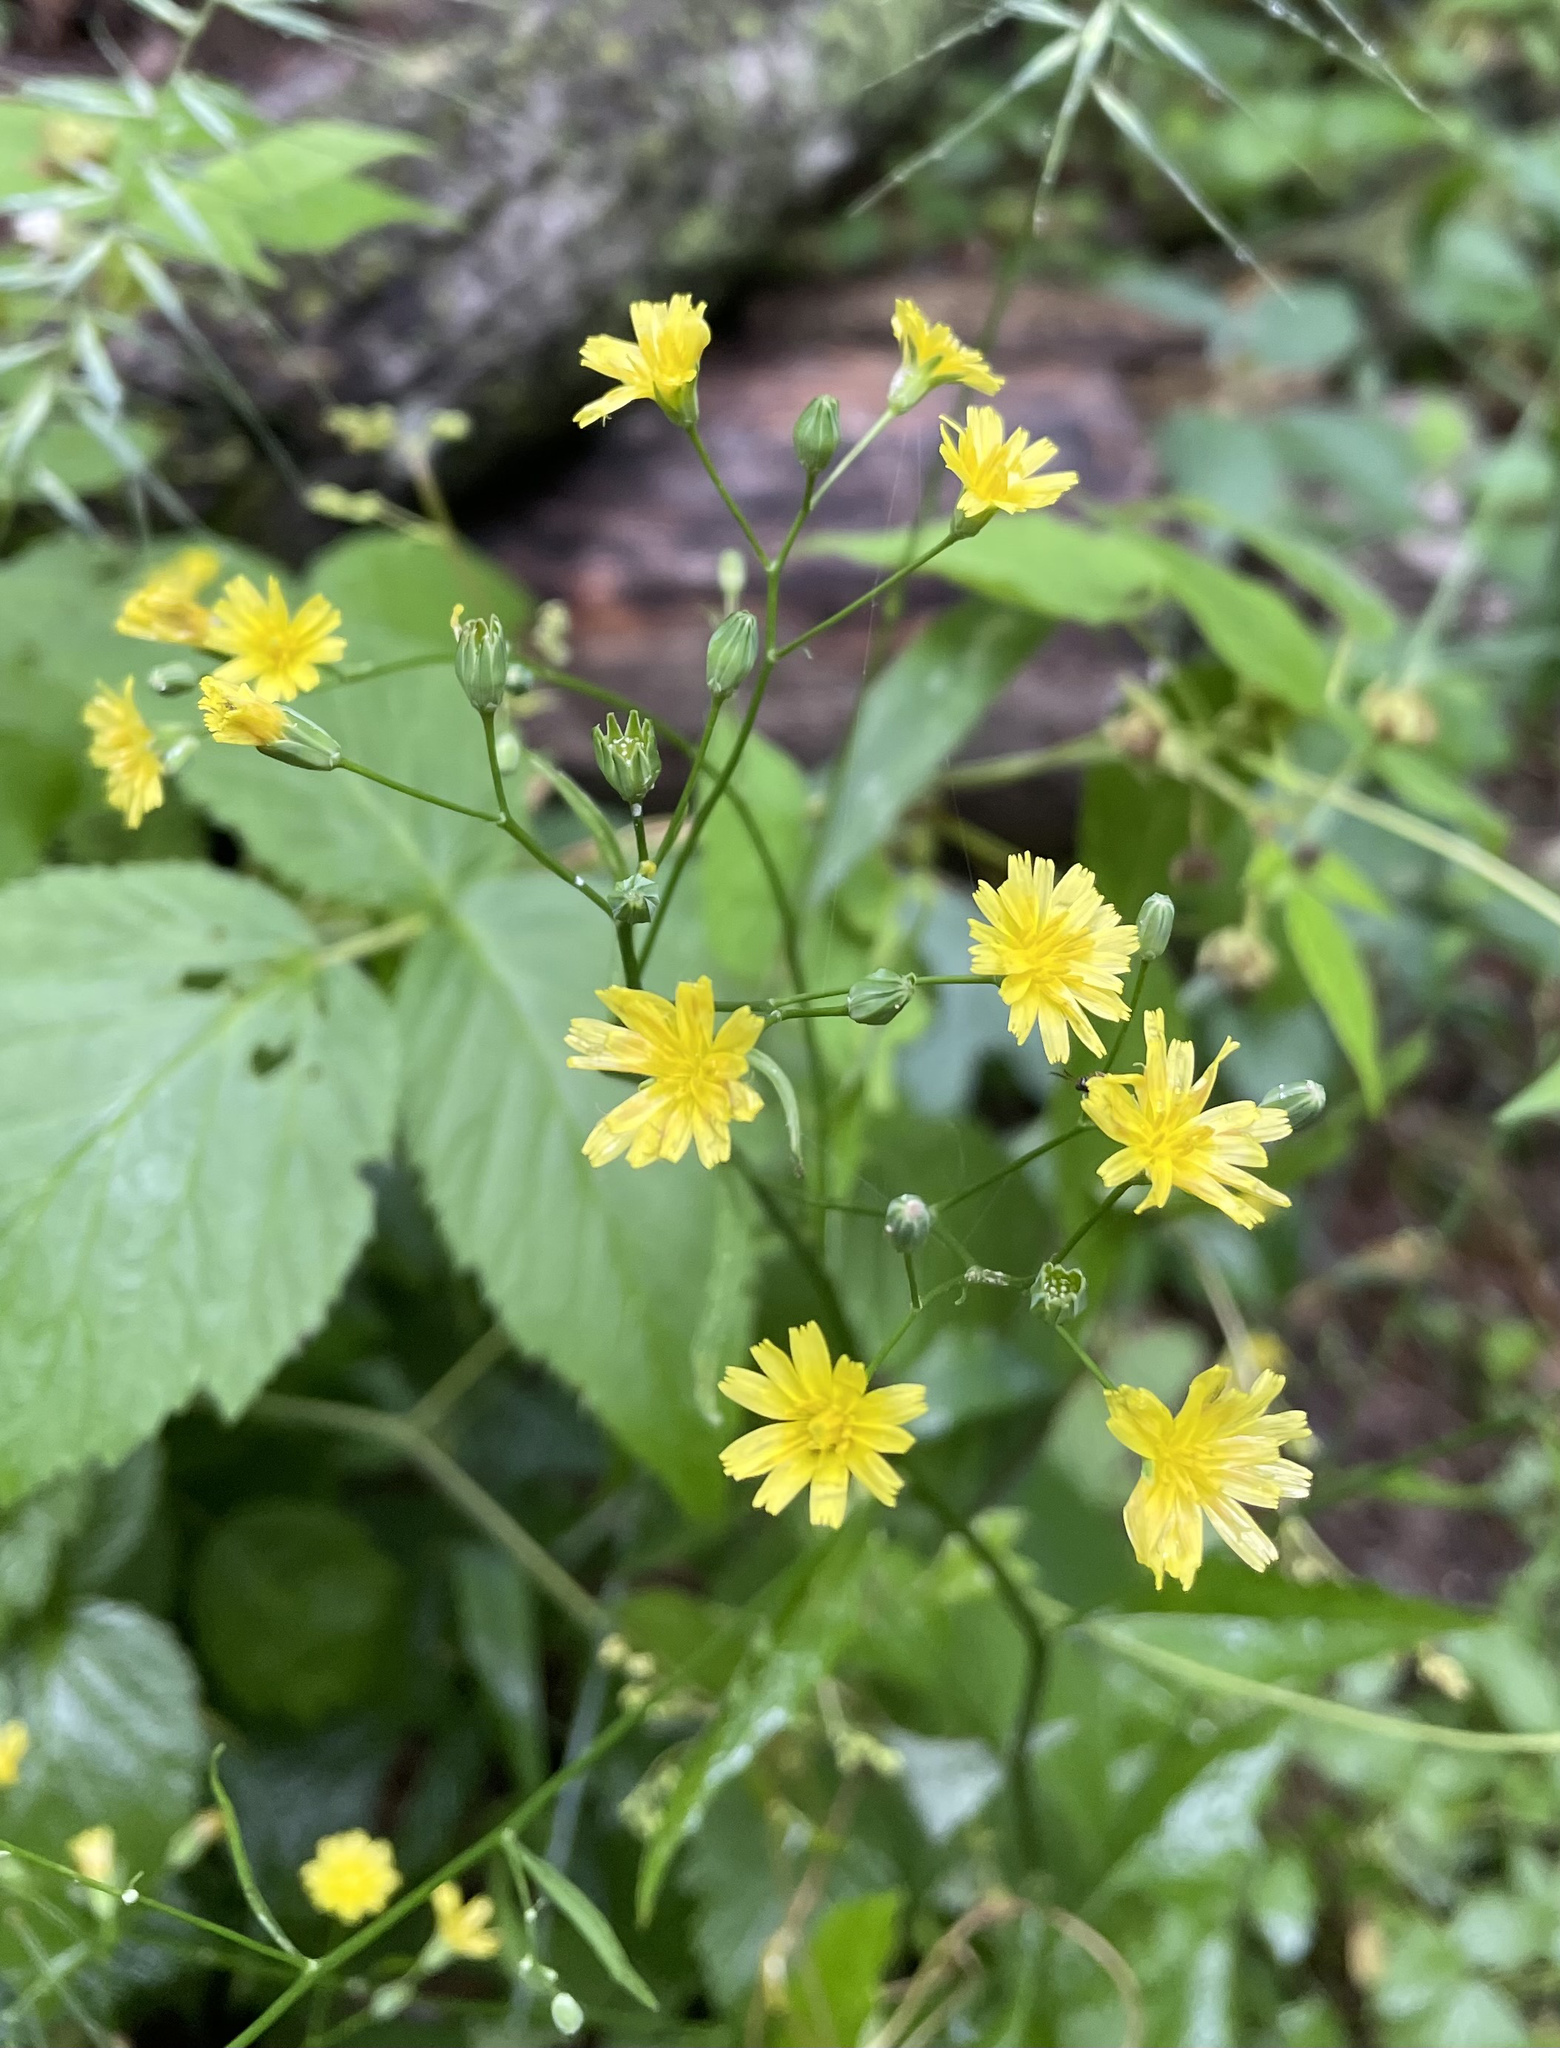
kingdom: Plantae
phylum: Tracheophyta
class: Magnoliopsida
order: Asterales
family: Asteraceae
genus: Lapsana
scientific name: Lapsana communis
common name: Nipplewort
